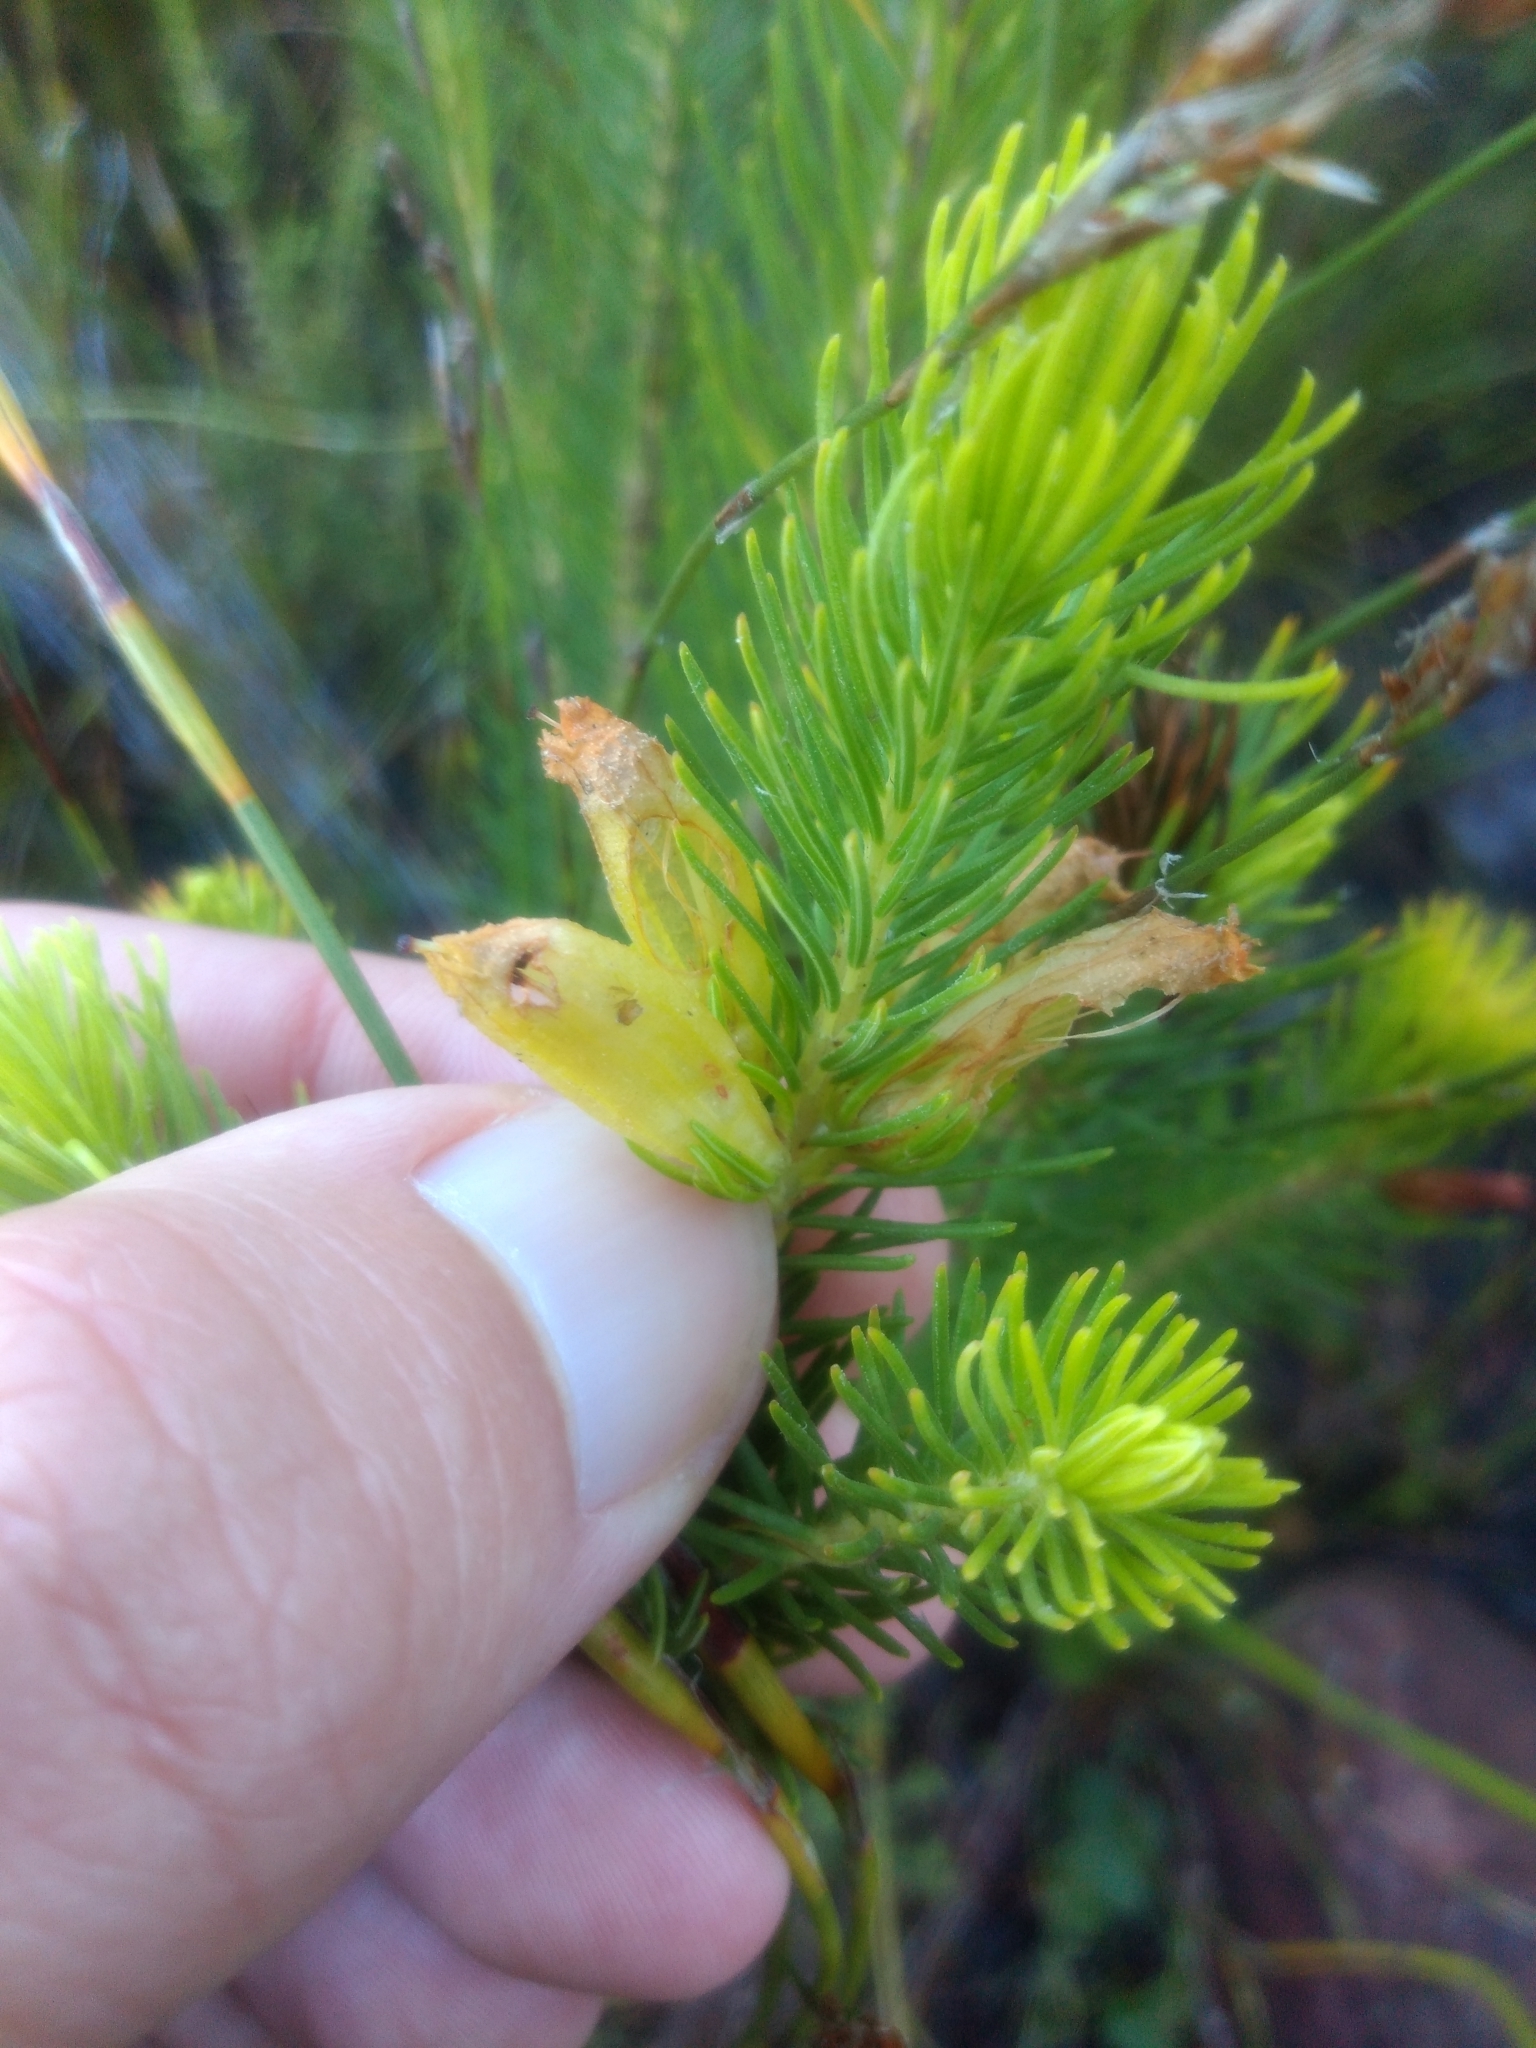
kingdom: Plantae
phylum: Tracheophyta
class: Magnoliopsida
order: Ericales
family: Ericaceae
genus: Erica
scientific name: Erica viscaria
